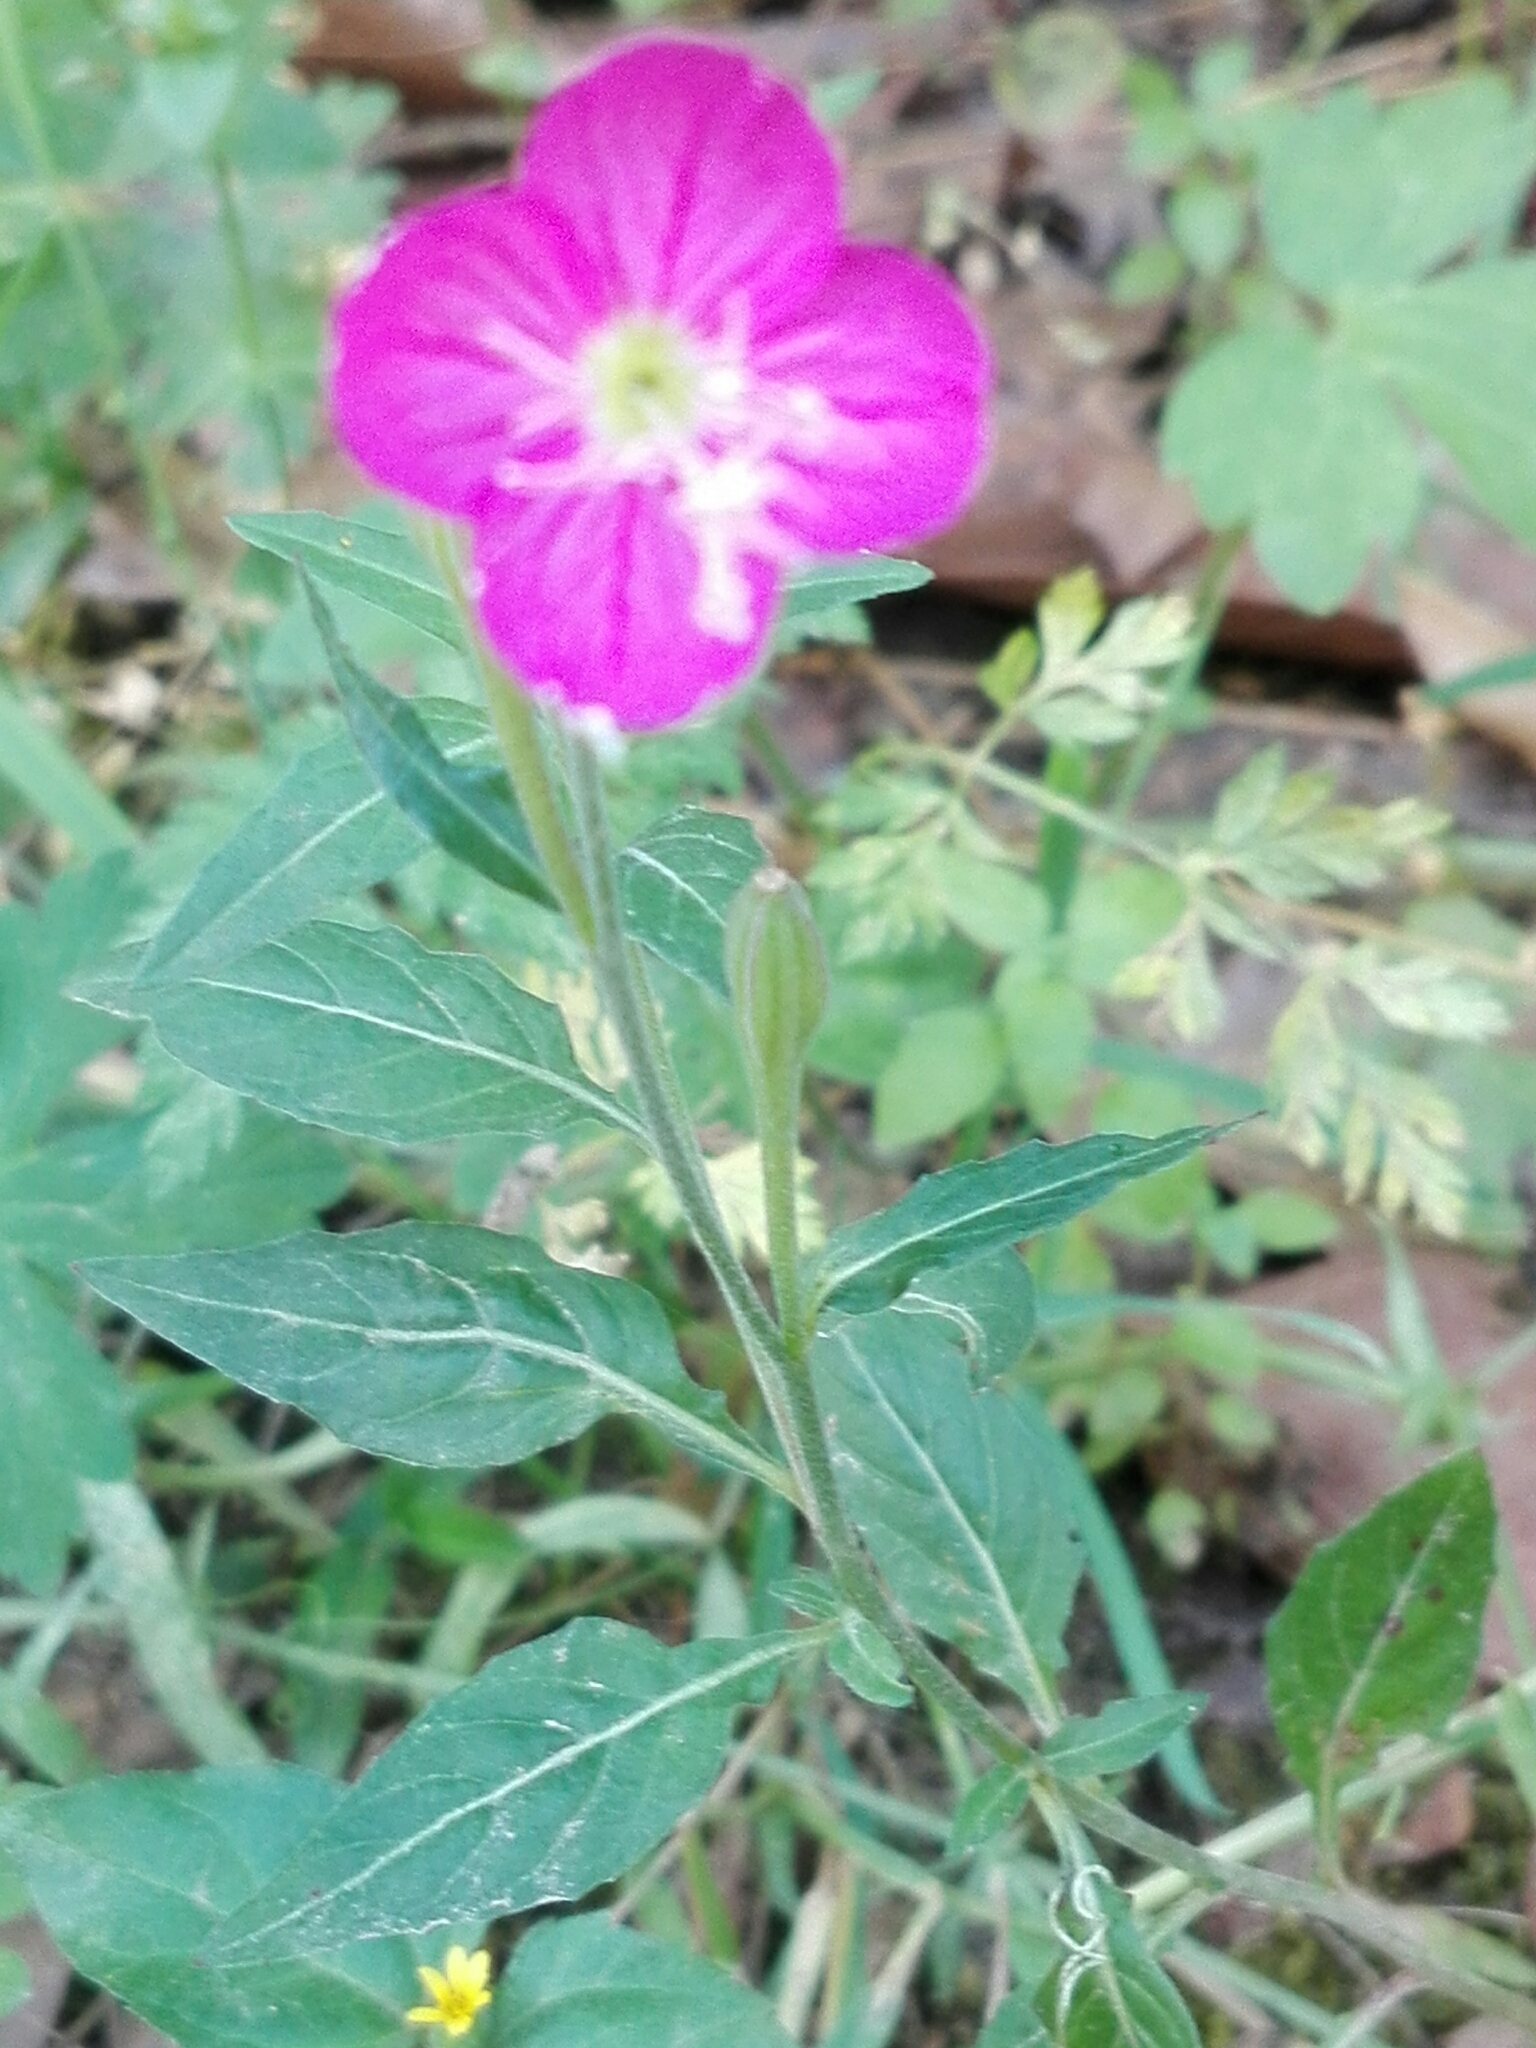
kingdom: Plantae
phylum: Tracheophyta
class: Magnoliopsida
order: Myrtales
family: Onagraceae
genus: Oenothera
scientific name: Oenothera rosea
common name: Rosy evening-primrose
